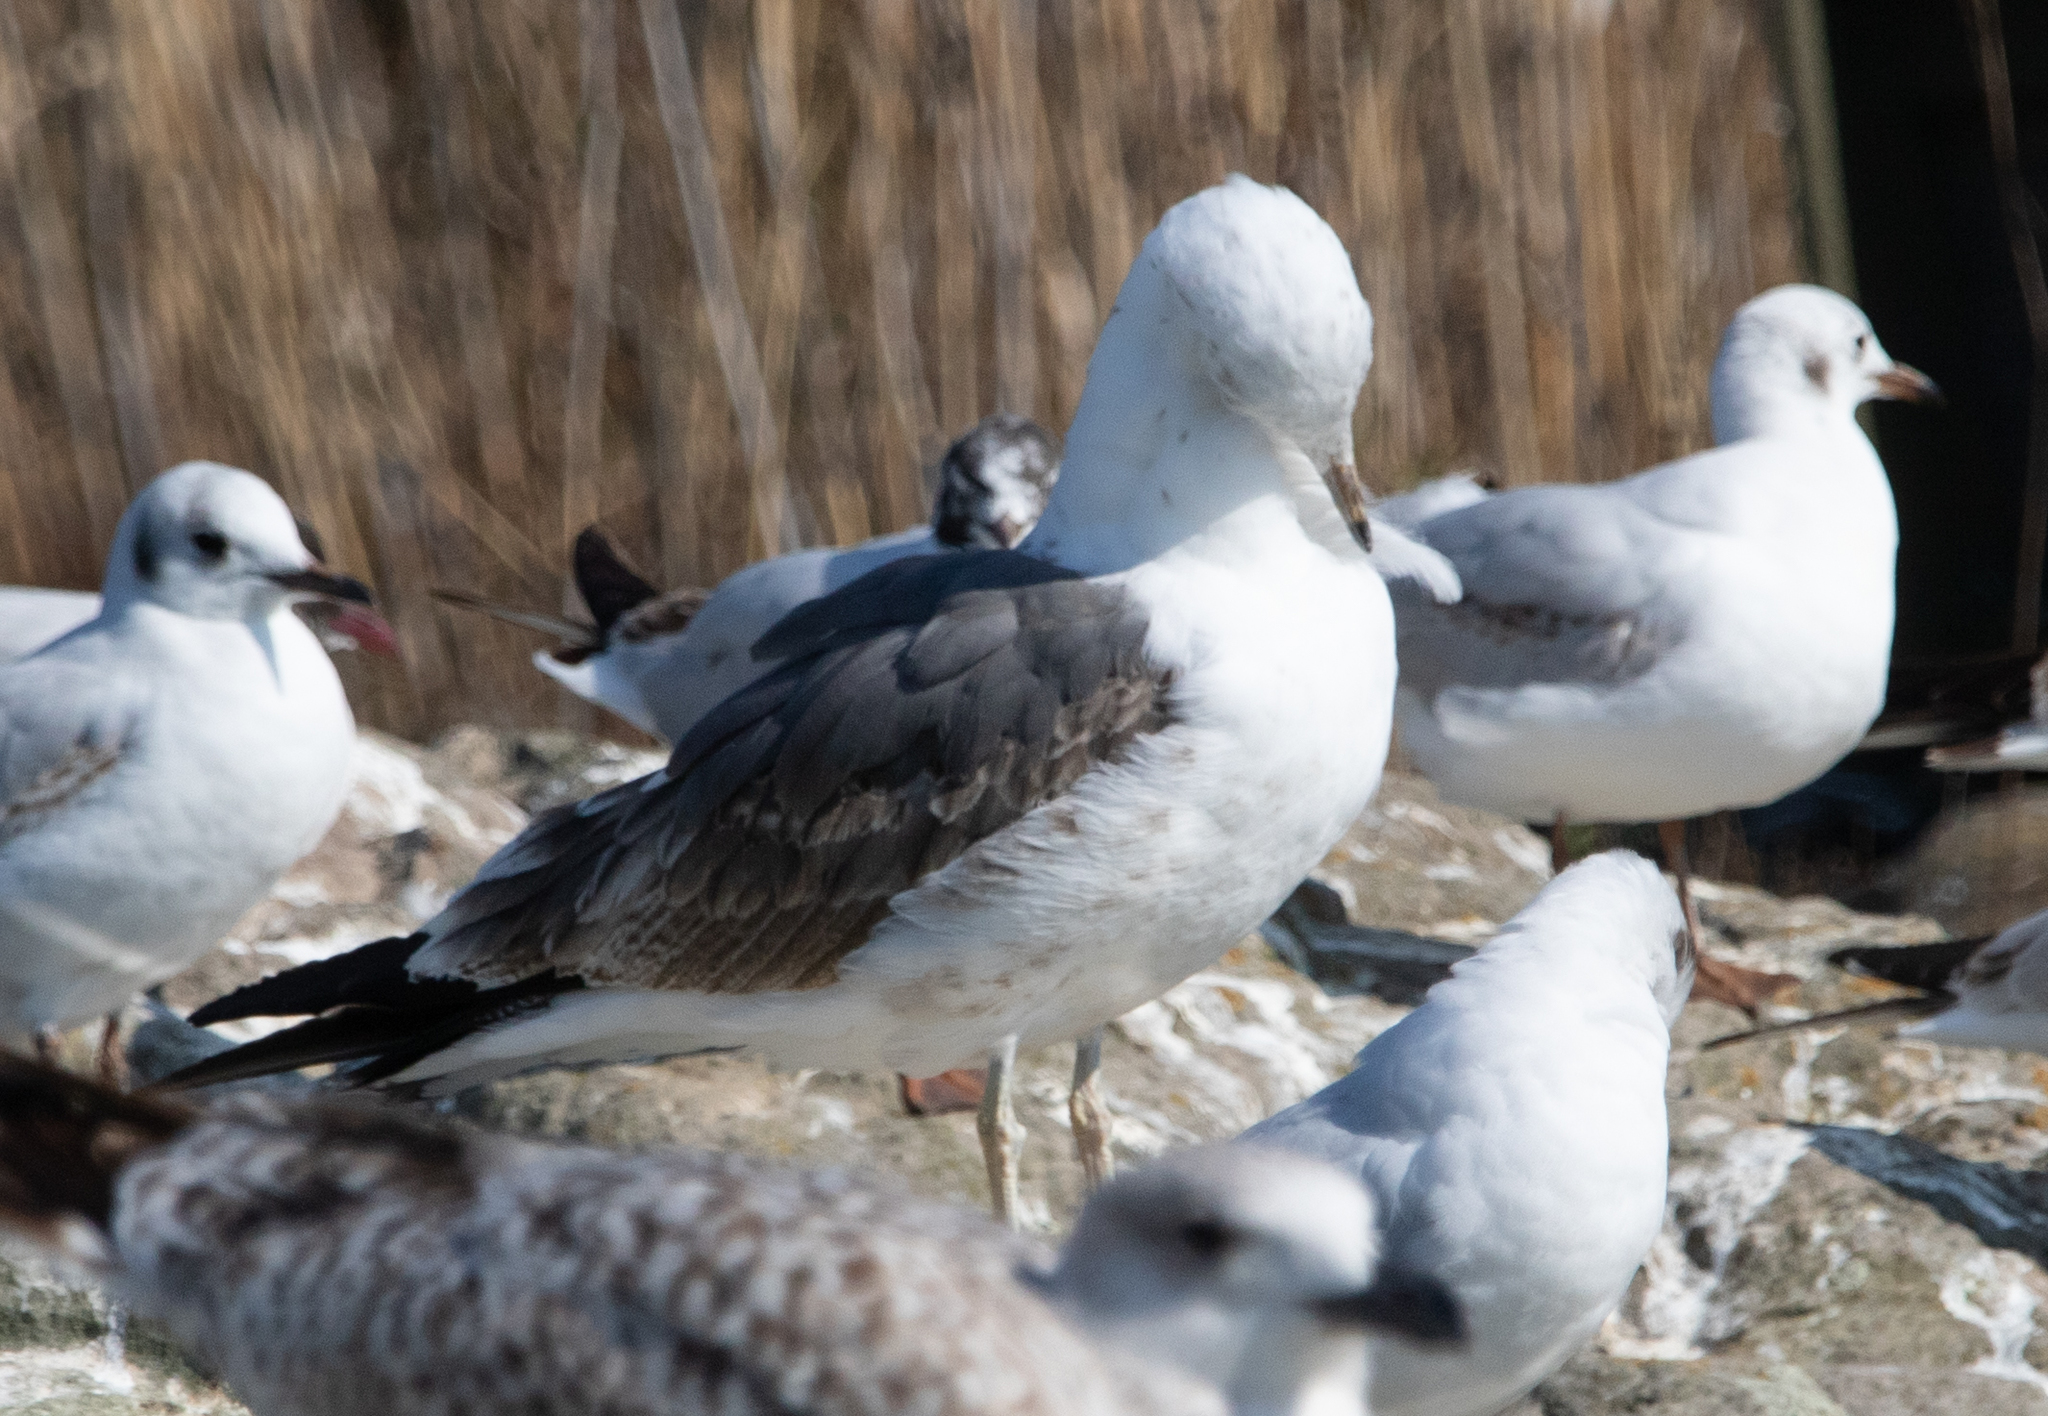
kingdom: Animalia
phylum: Chordata
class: Aves
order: Charadriiformes
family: Laridae
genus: Larus
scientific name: Larus fuscus
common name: Lesser black-backed gull
